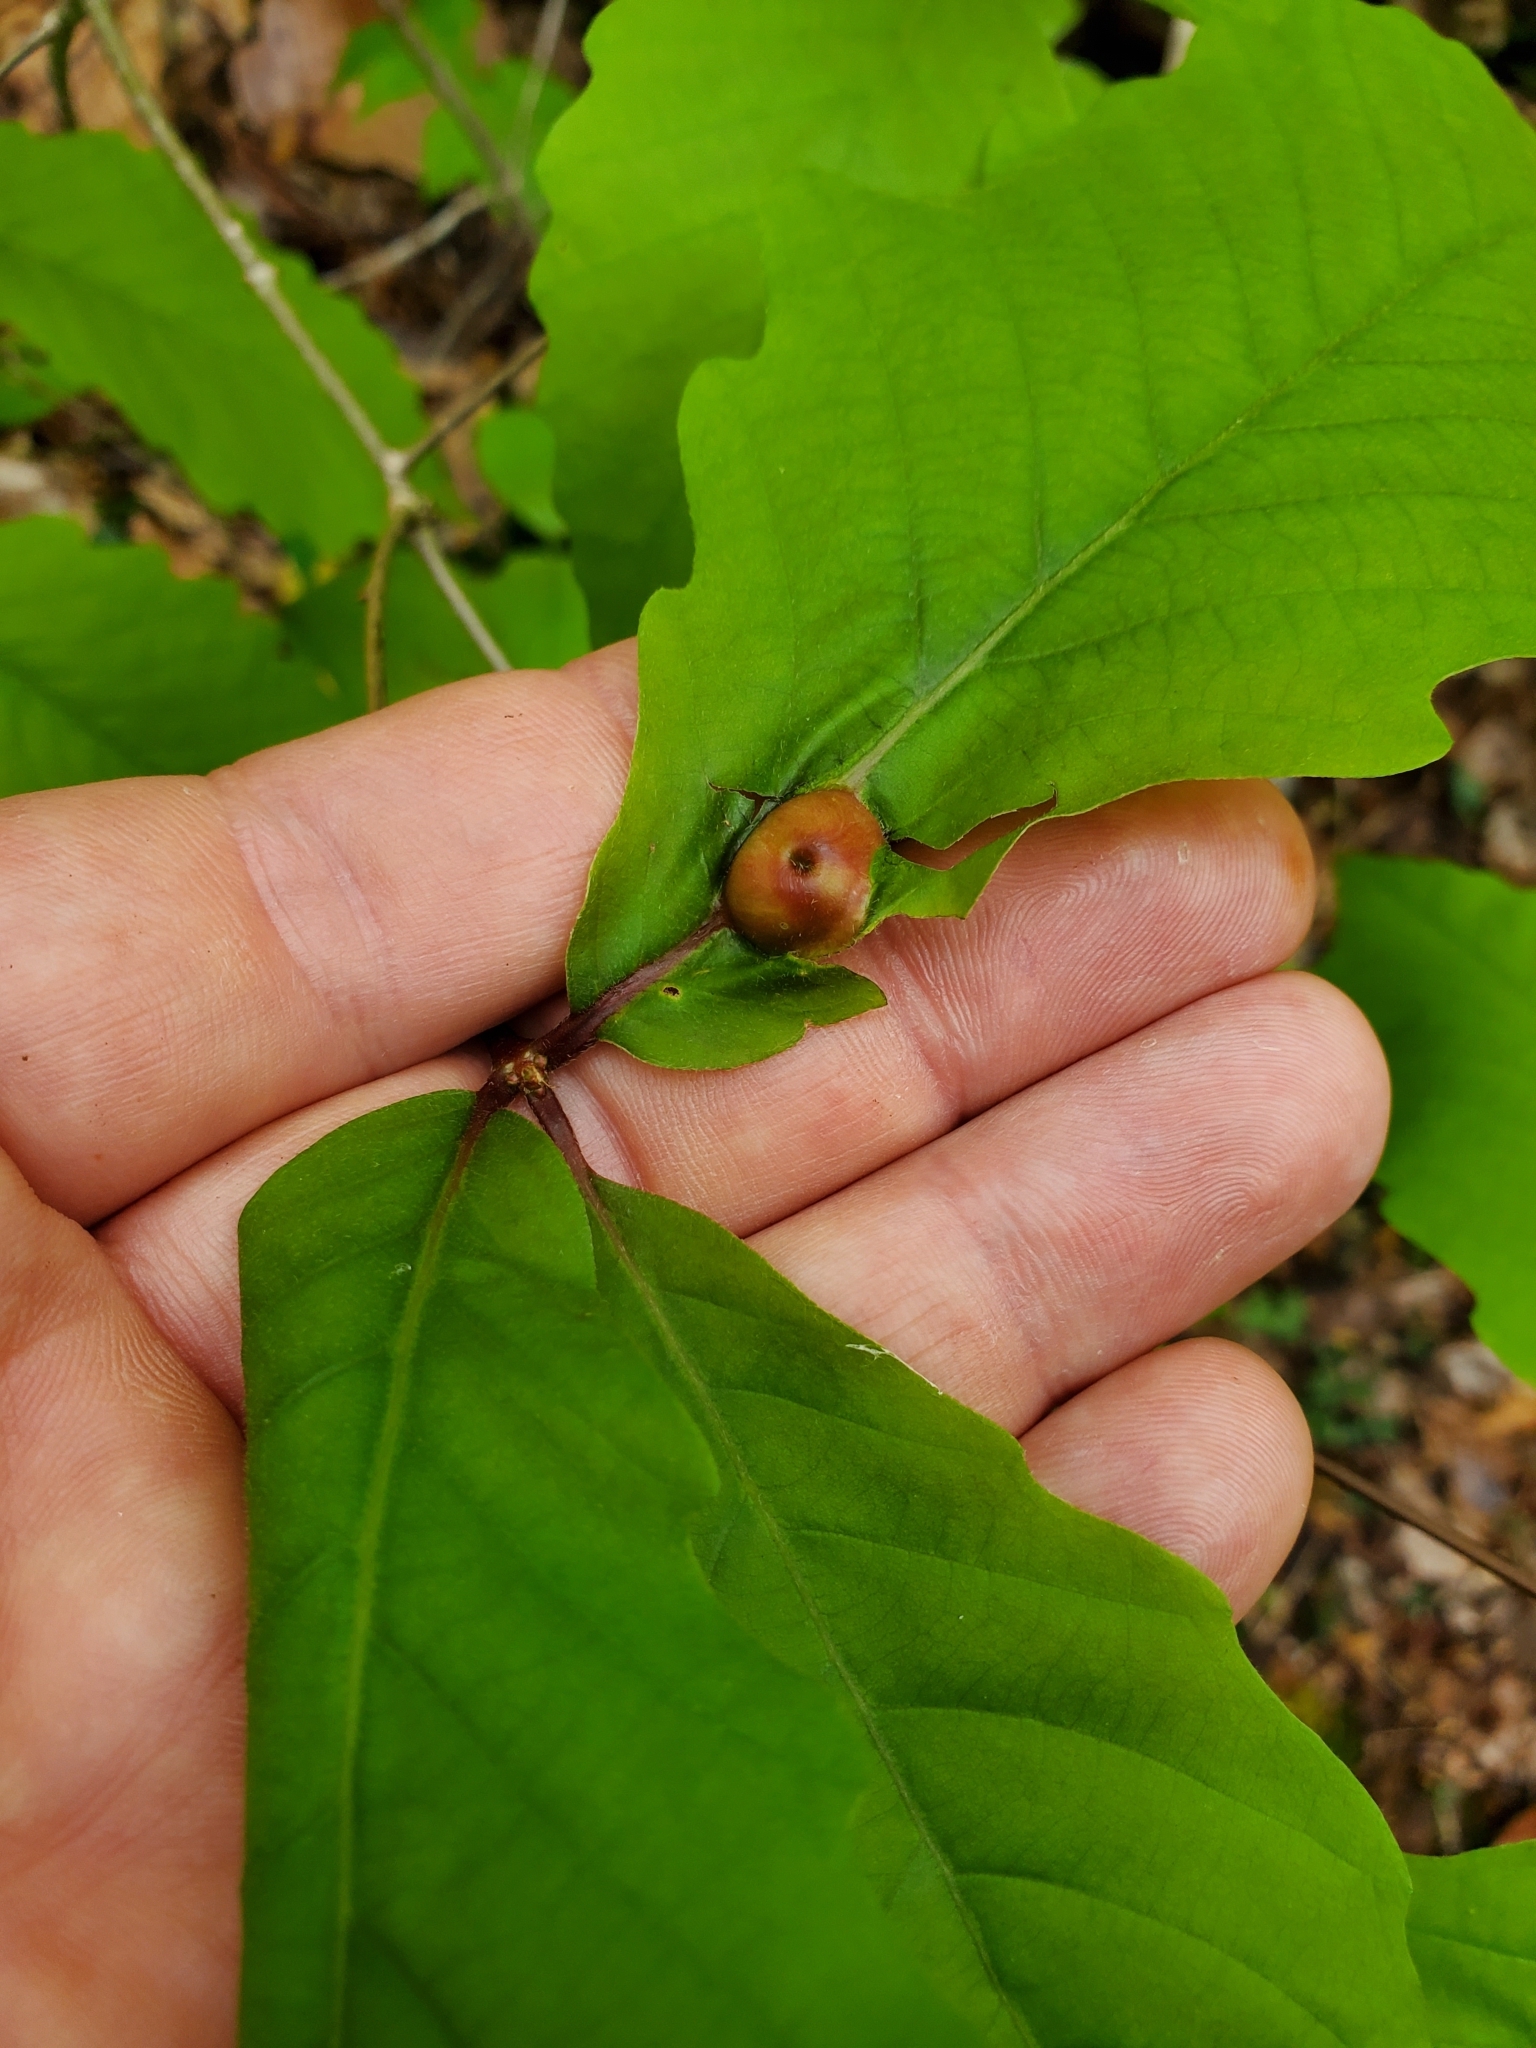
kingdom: Animalia
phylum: Arthropoda
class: Insecta
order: Hymenoptera
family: Cynipidae
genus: Andricus
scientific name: Andricus
